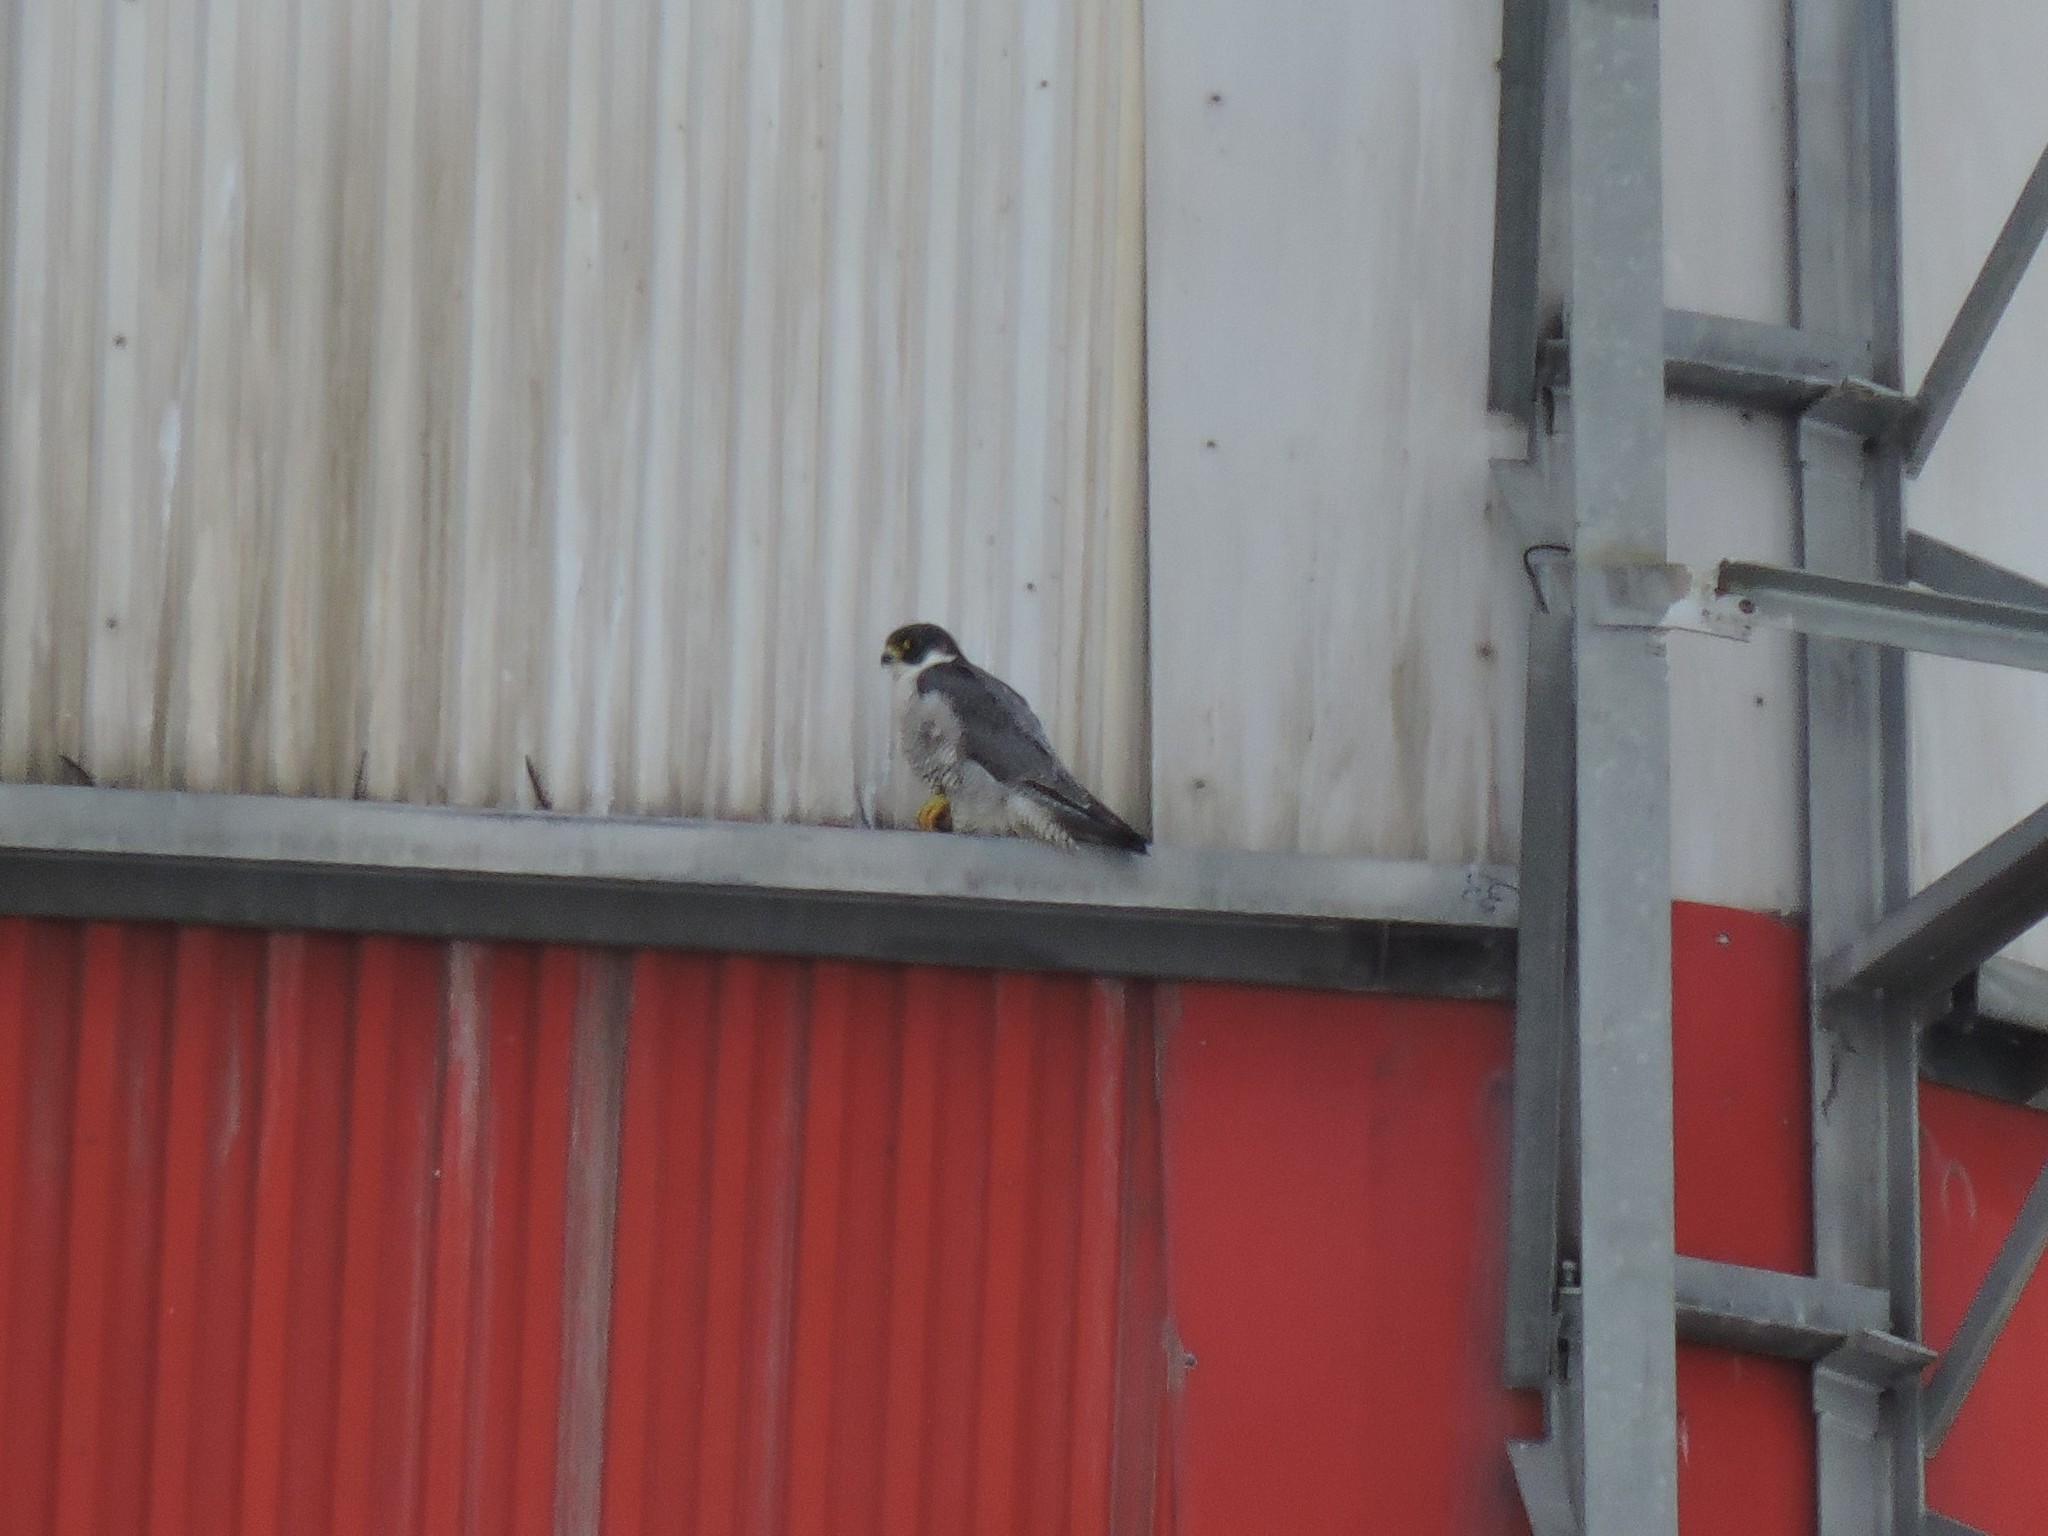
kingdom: Animalia
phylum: Chordata
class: Aves
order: Falconiformes
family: Falconidae
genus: Falco
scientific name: Falco peregrinus
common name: Peregrine falcon
